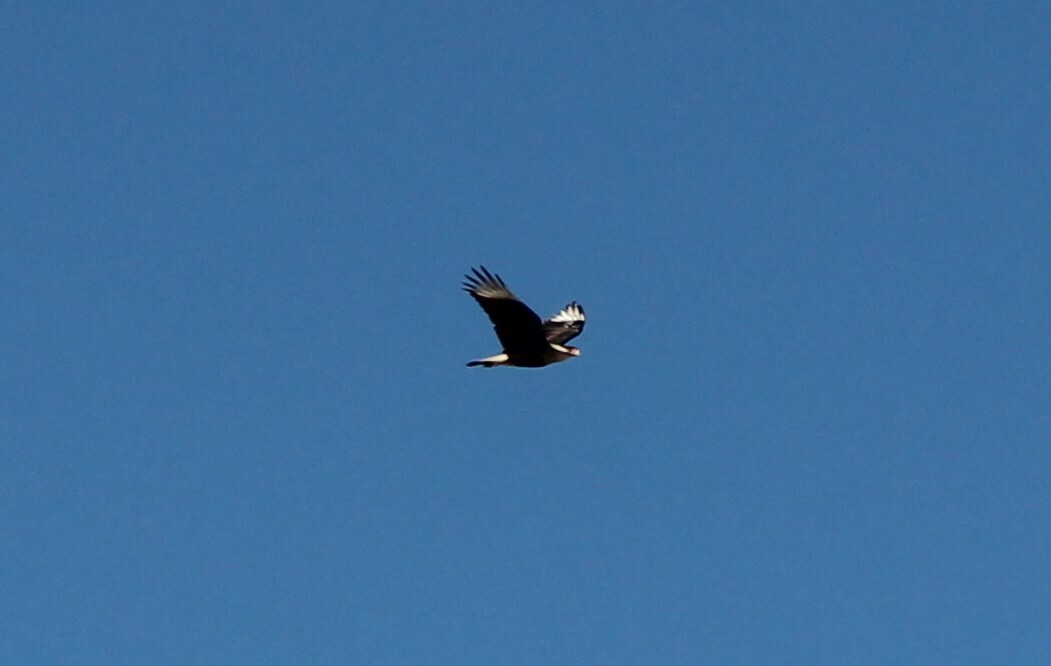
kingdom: Animalia
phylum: Chordata
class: Aves
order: Falconiformes
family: Falconidae
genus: Caracara
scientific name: Caracara plancus
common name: Southern caracara
